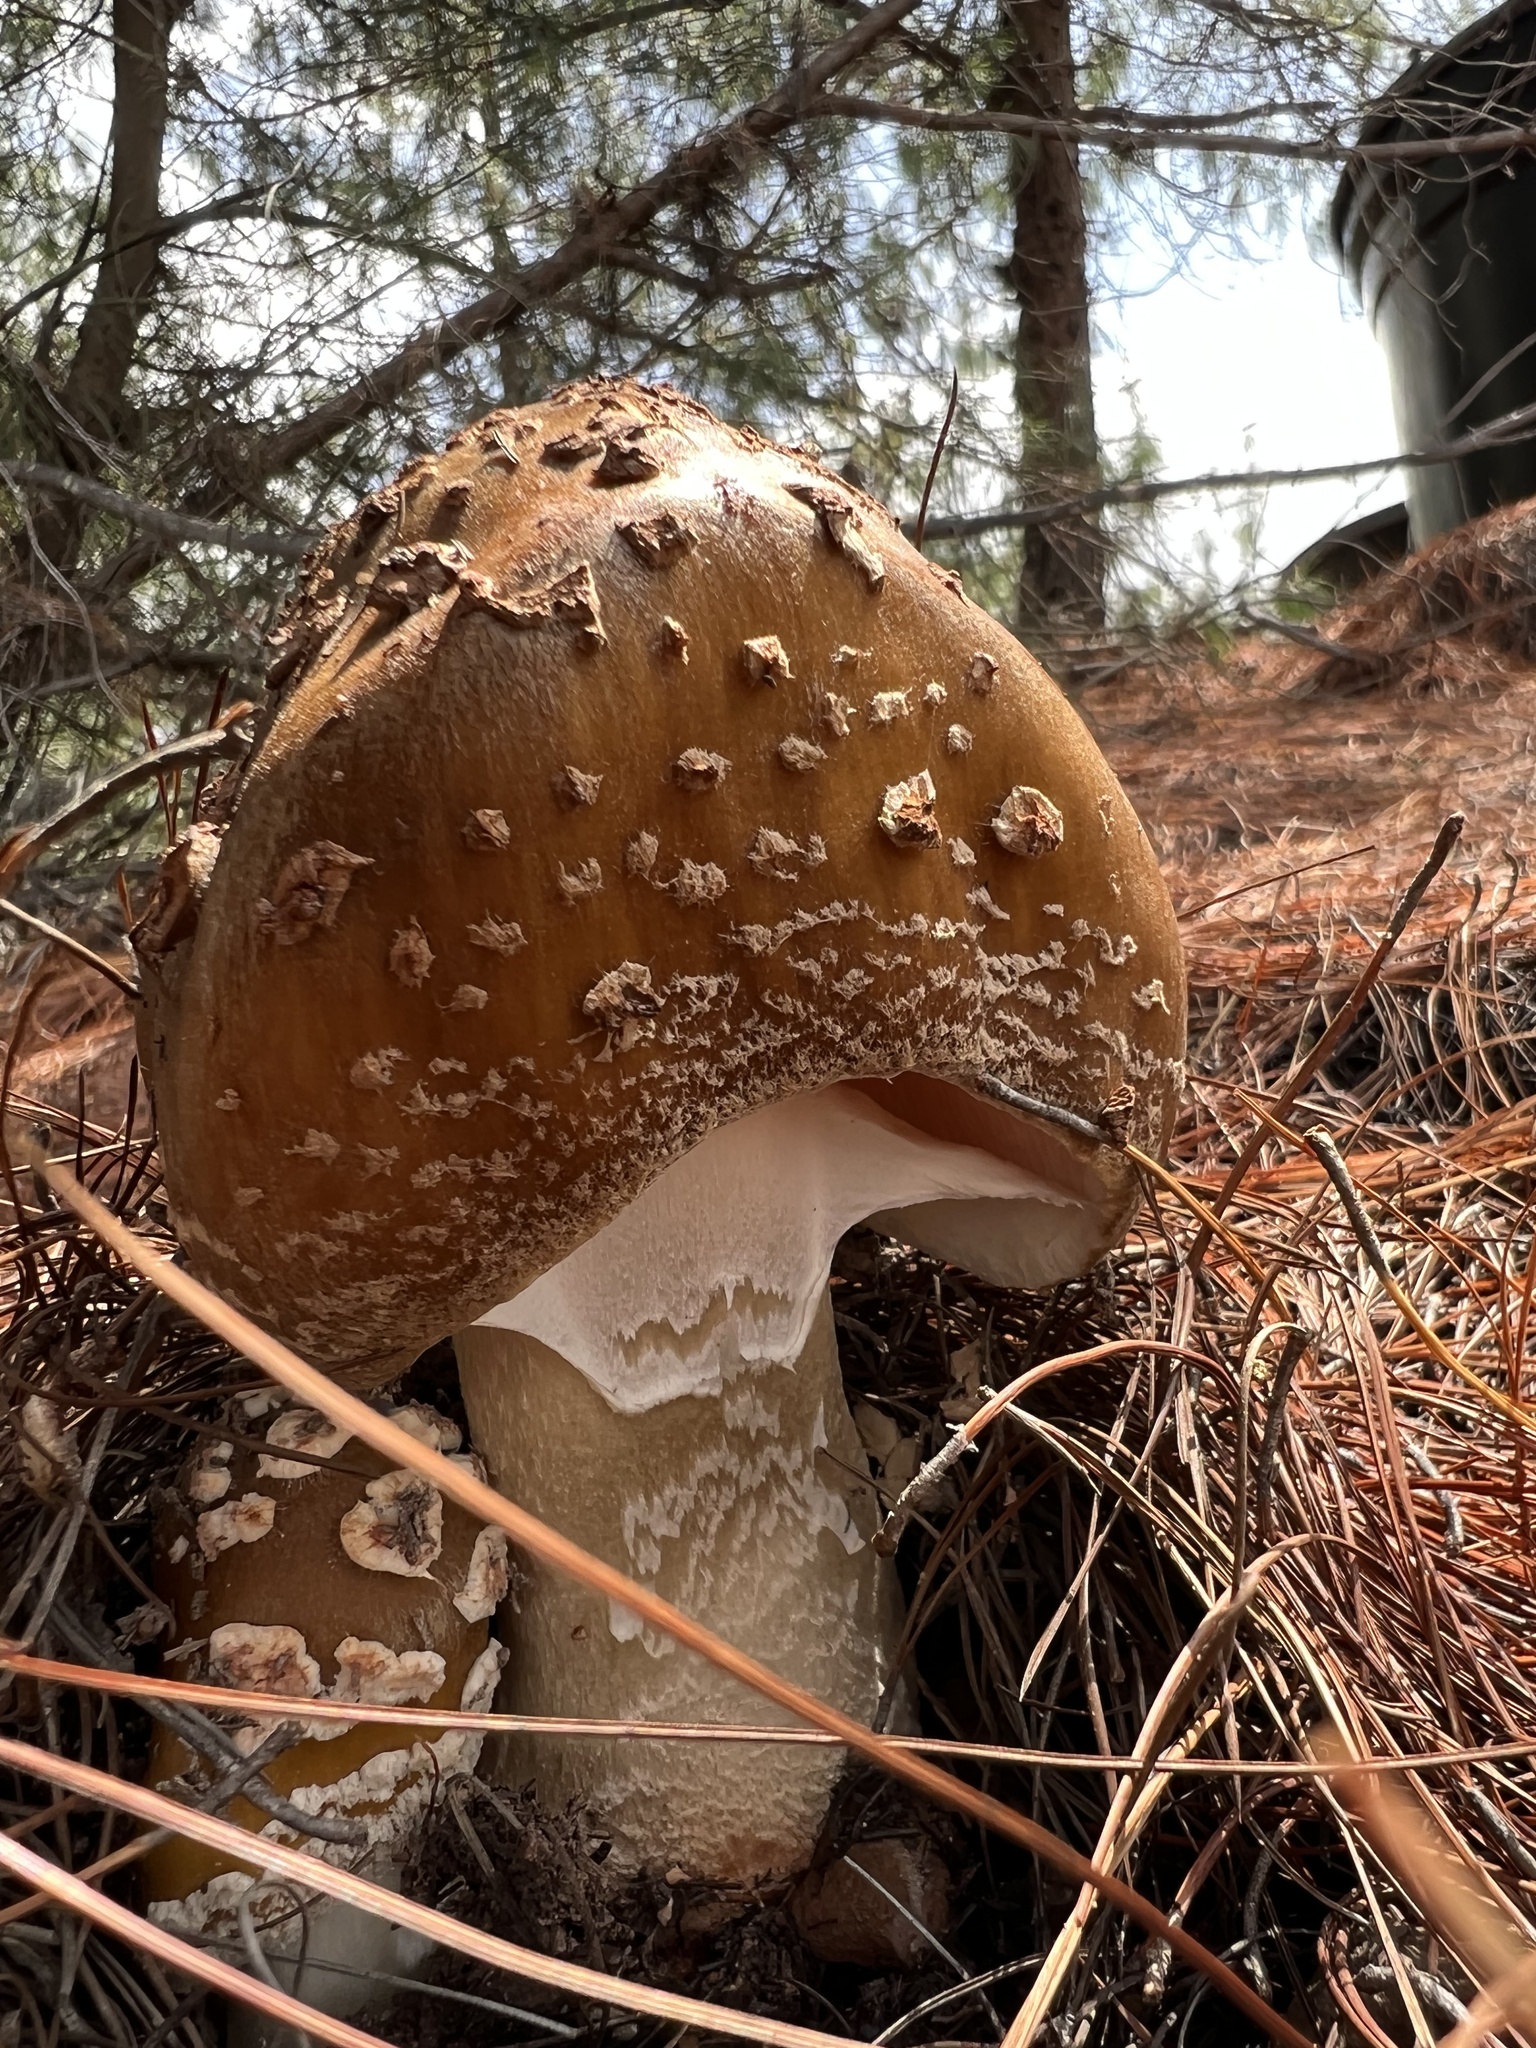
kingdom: Fungi
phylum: Basidiomycota
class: Agaricomycetes
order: Agaricales
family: Amanitaceae
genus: Amanita
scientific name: Amanita brunneolocularis
